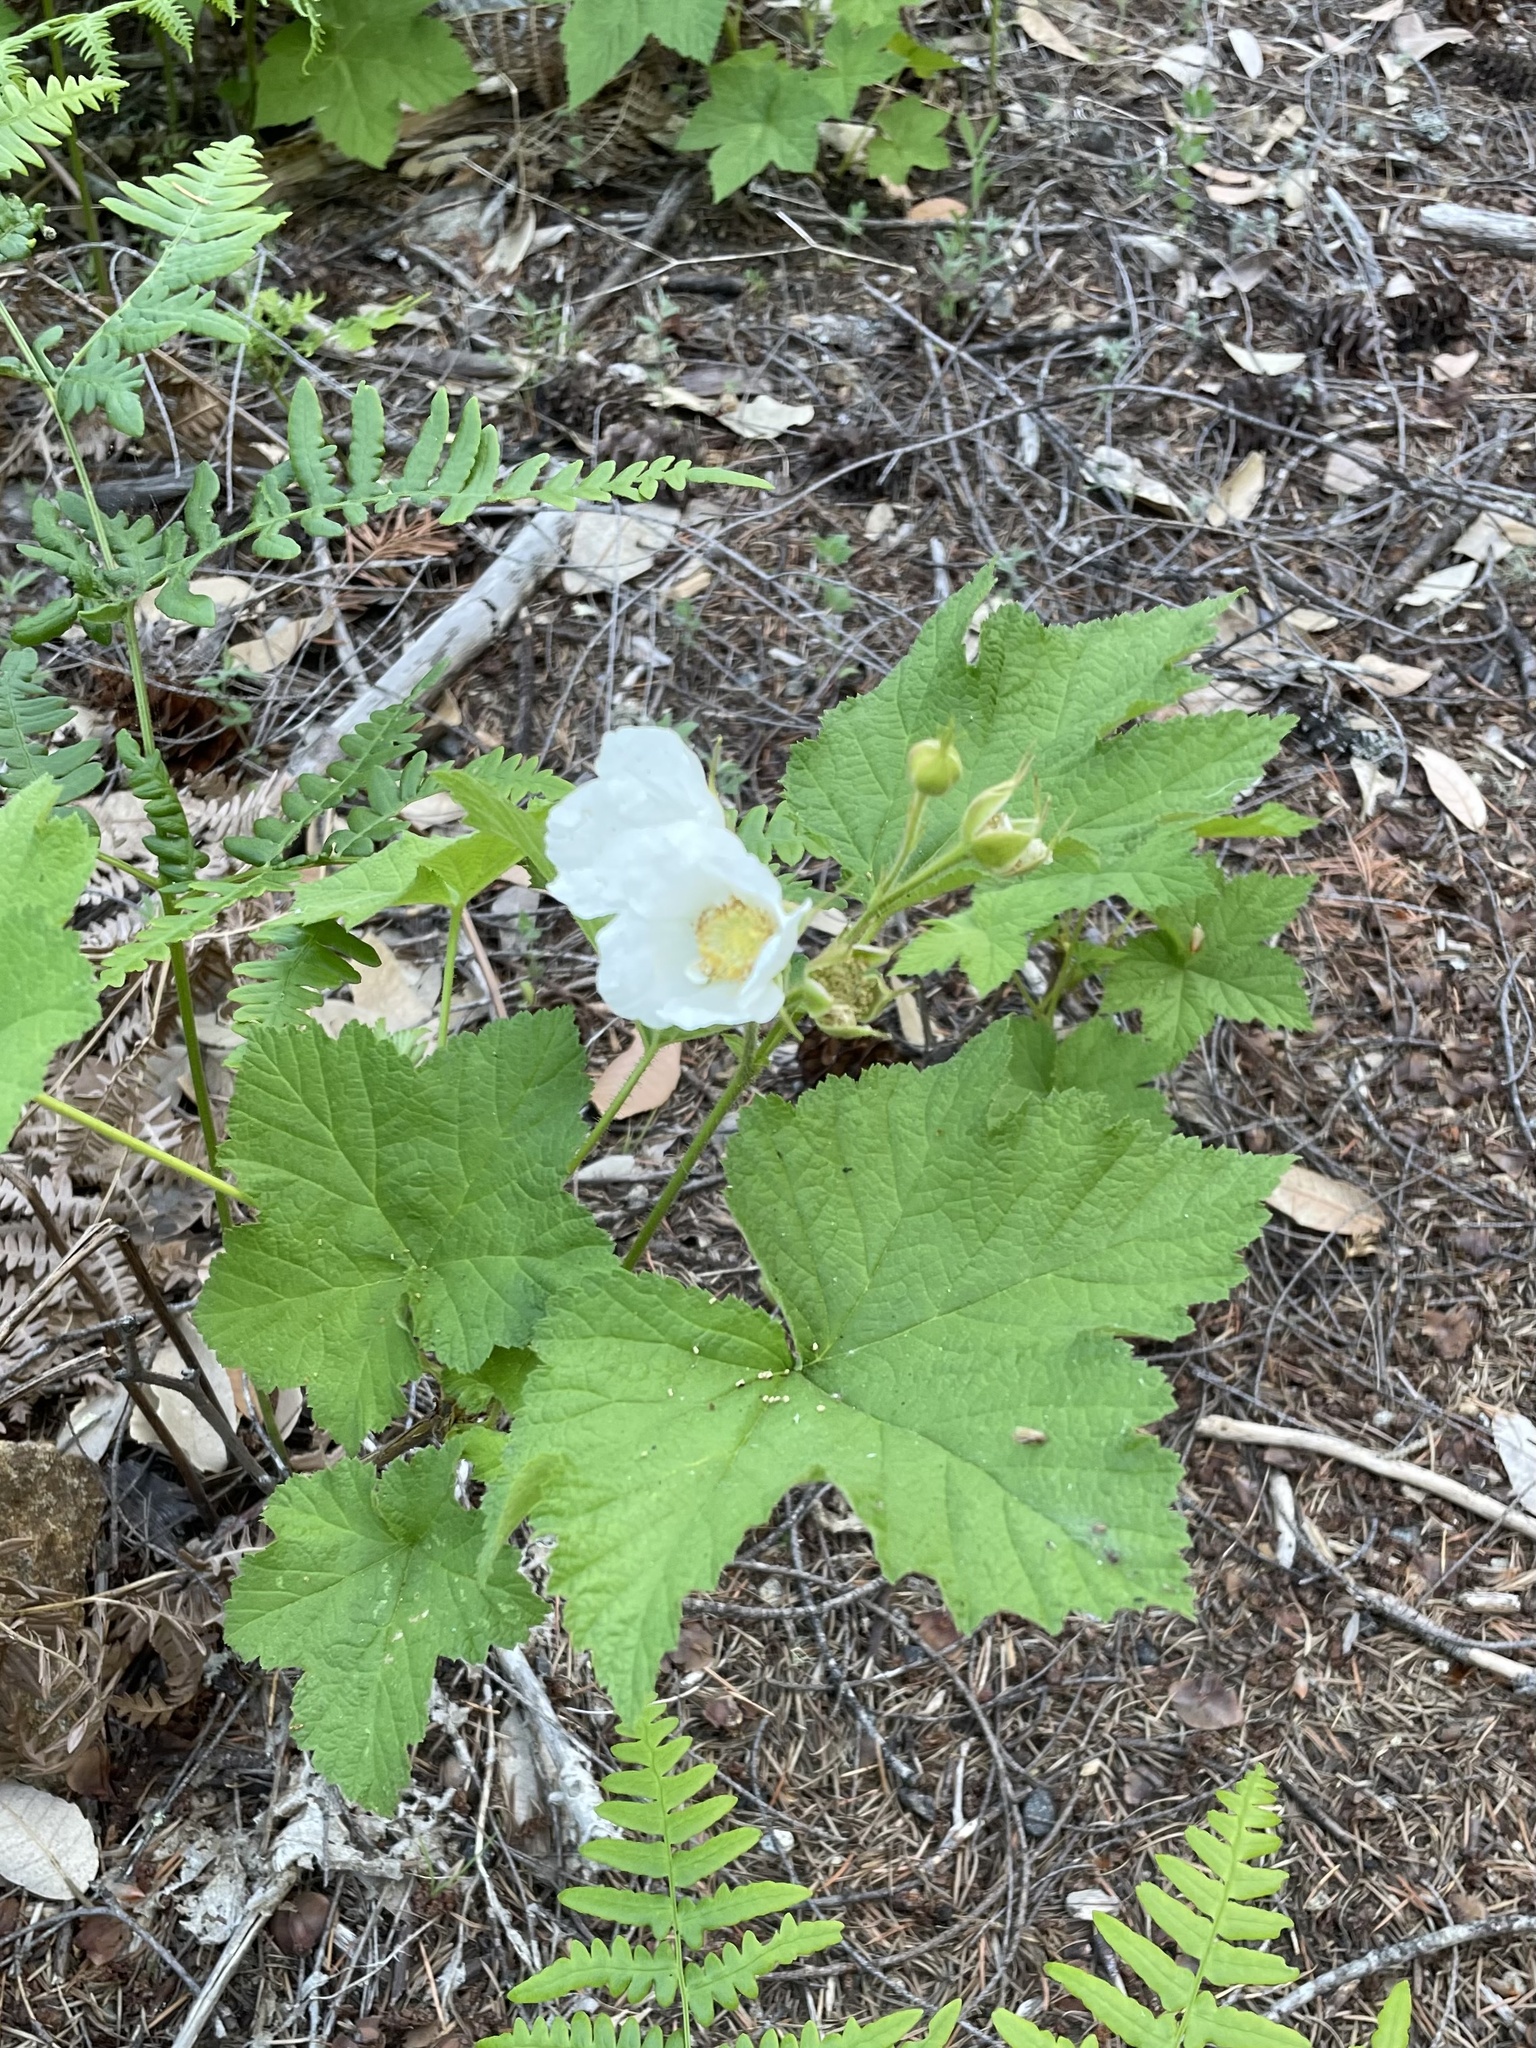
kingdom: Plantae
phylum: Tracheophyta
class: Magnoliopsida
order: Rosales
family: Rosaceae
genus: Rubus
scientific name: Rubus parviflorus
